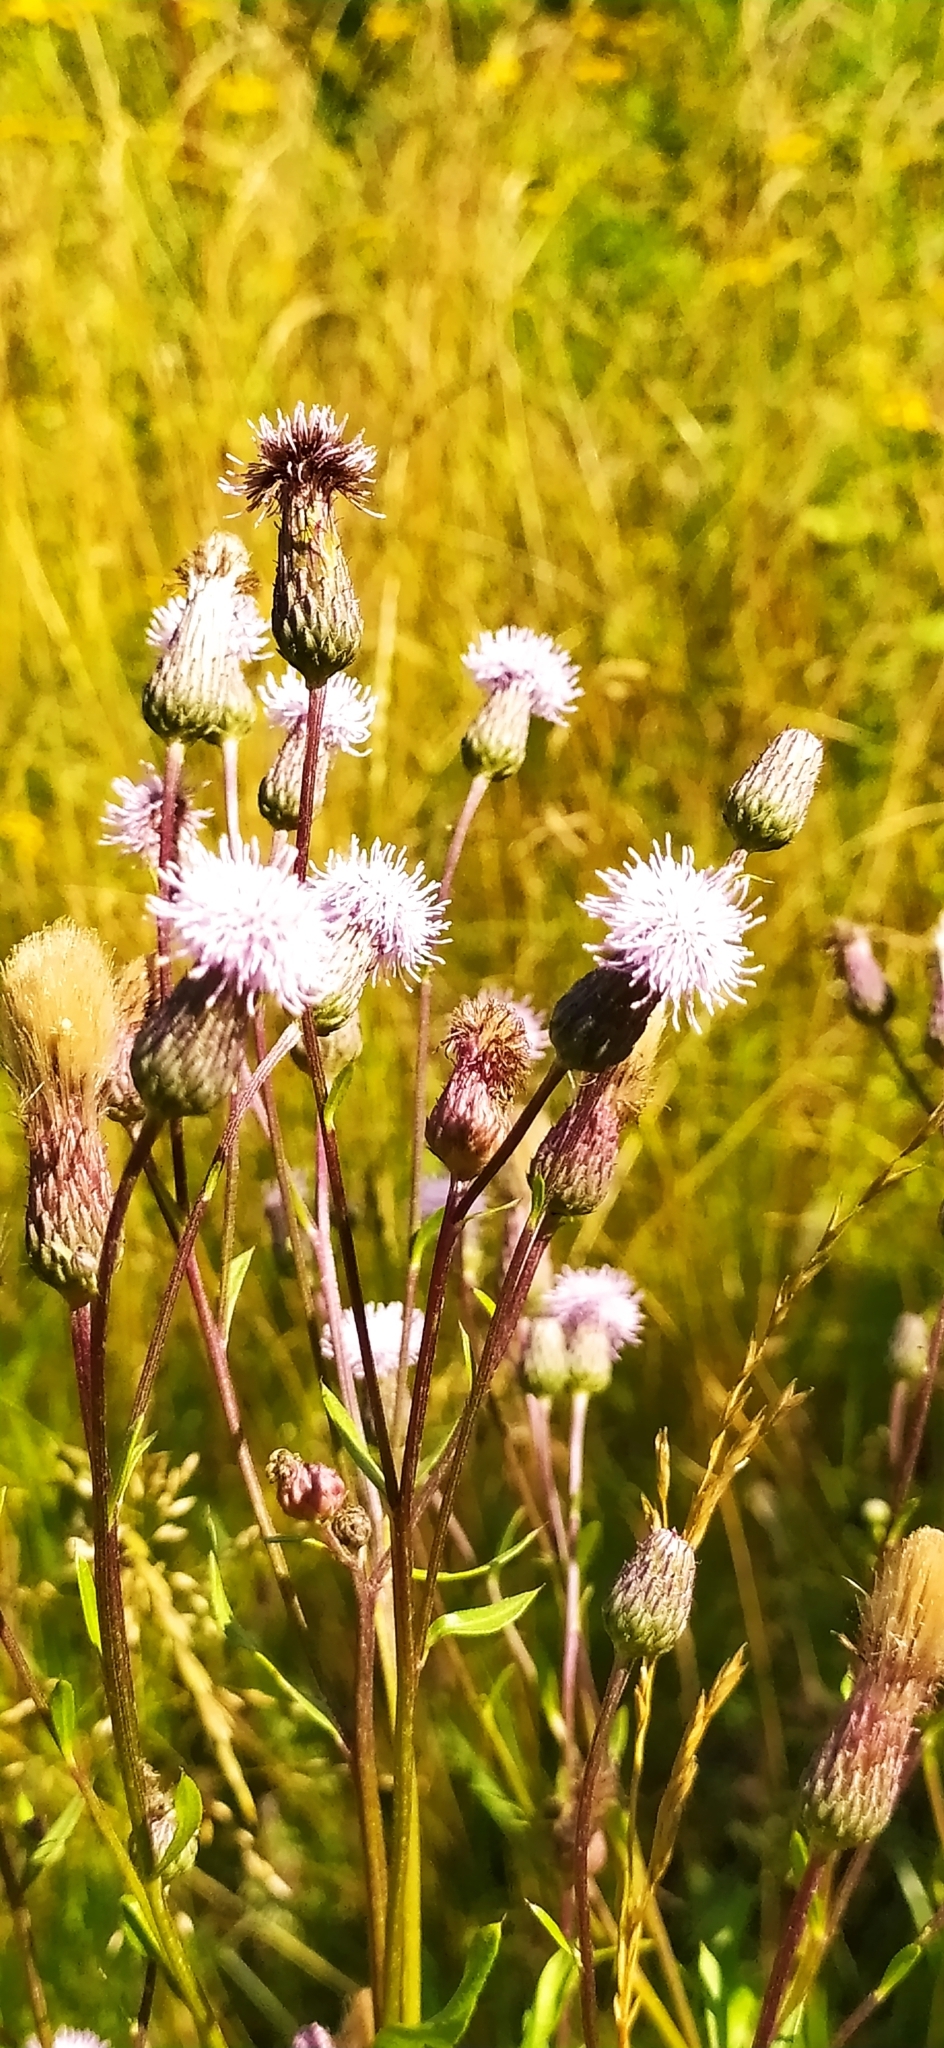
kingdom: Plantae
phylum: Tracheophyta
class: Magnoliopsida
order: Asterales
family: Asteraceae
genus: Cirsium
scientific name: Cirsium arvense
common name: Creeping thistle
